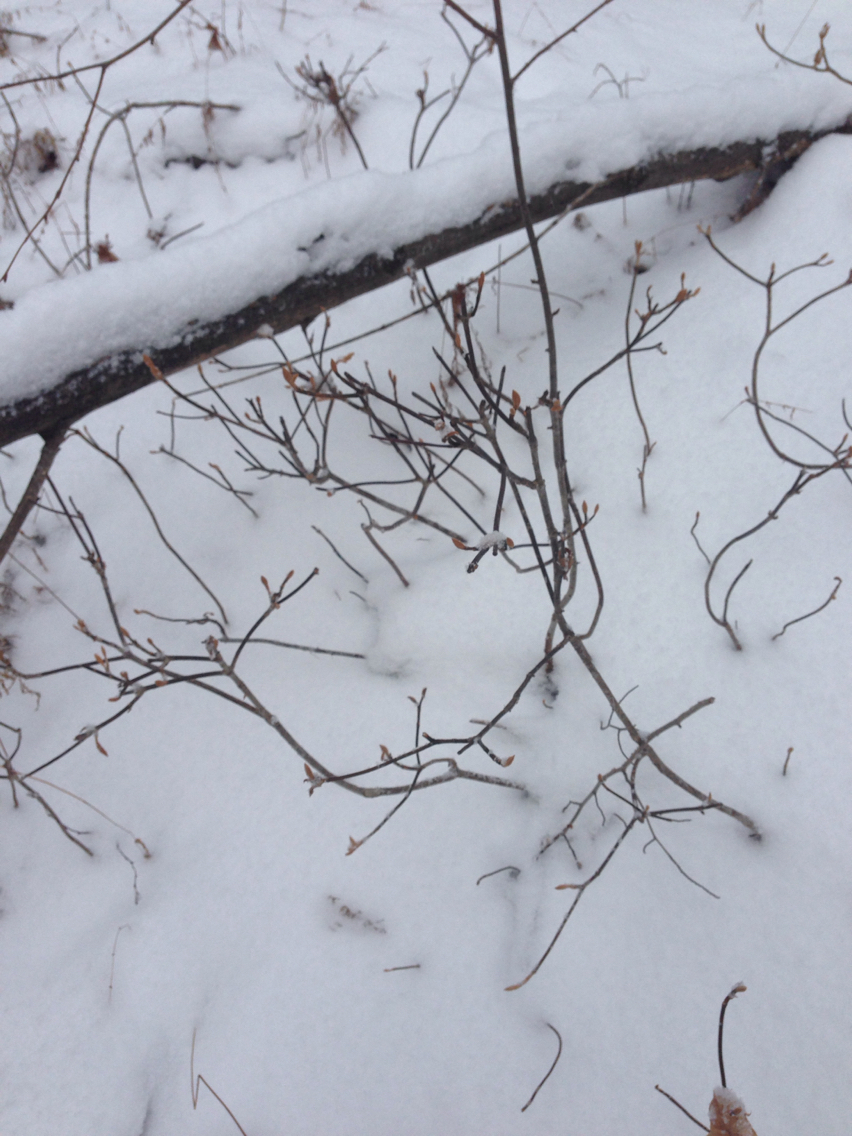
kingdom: Plantae
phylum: Tracheophyta
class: Magnoliopsida
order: Dipsacales
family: Viburnaceae
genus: Viburnum
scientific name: Viburnum lantanoides
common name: Hobblebush
